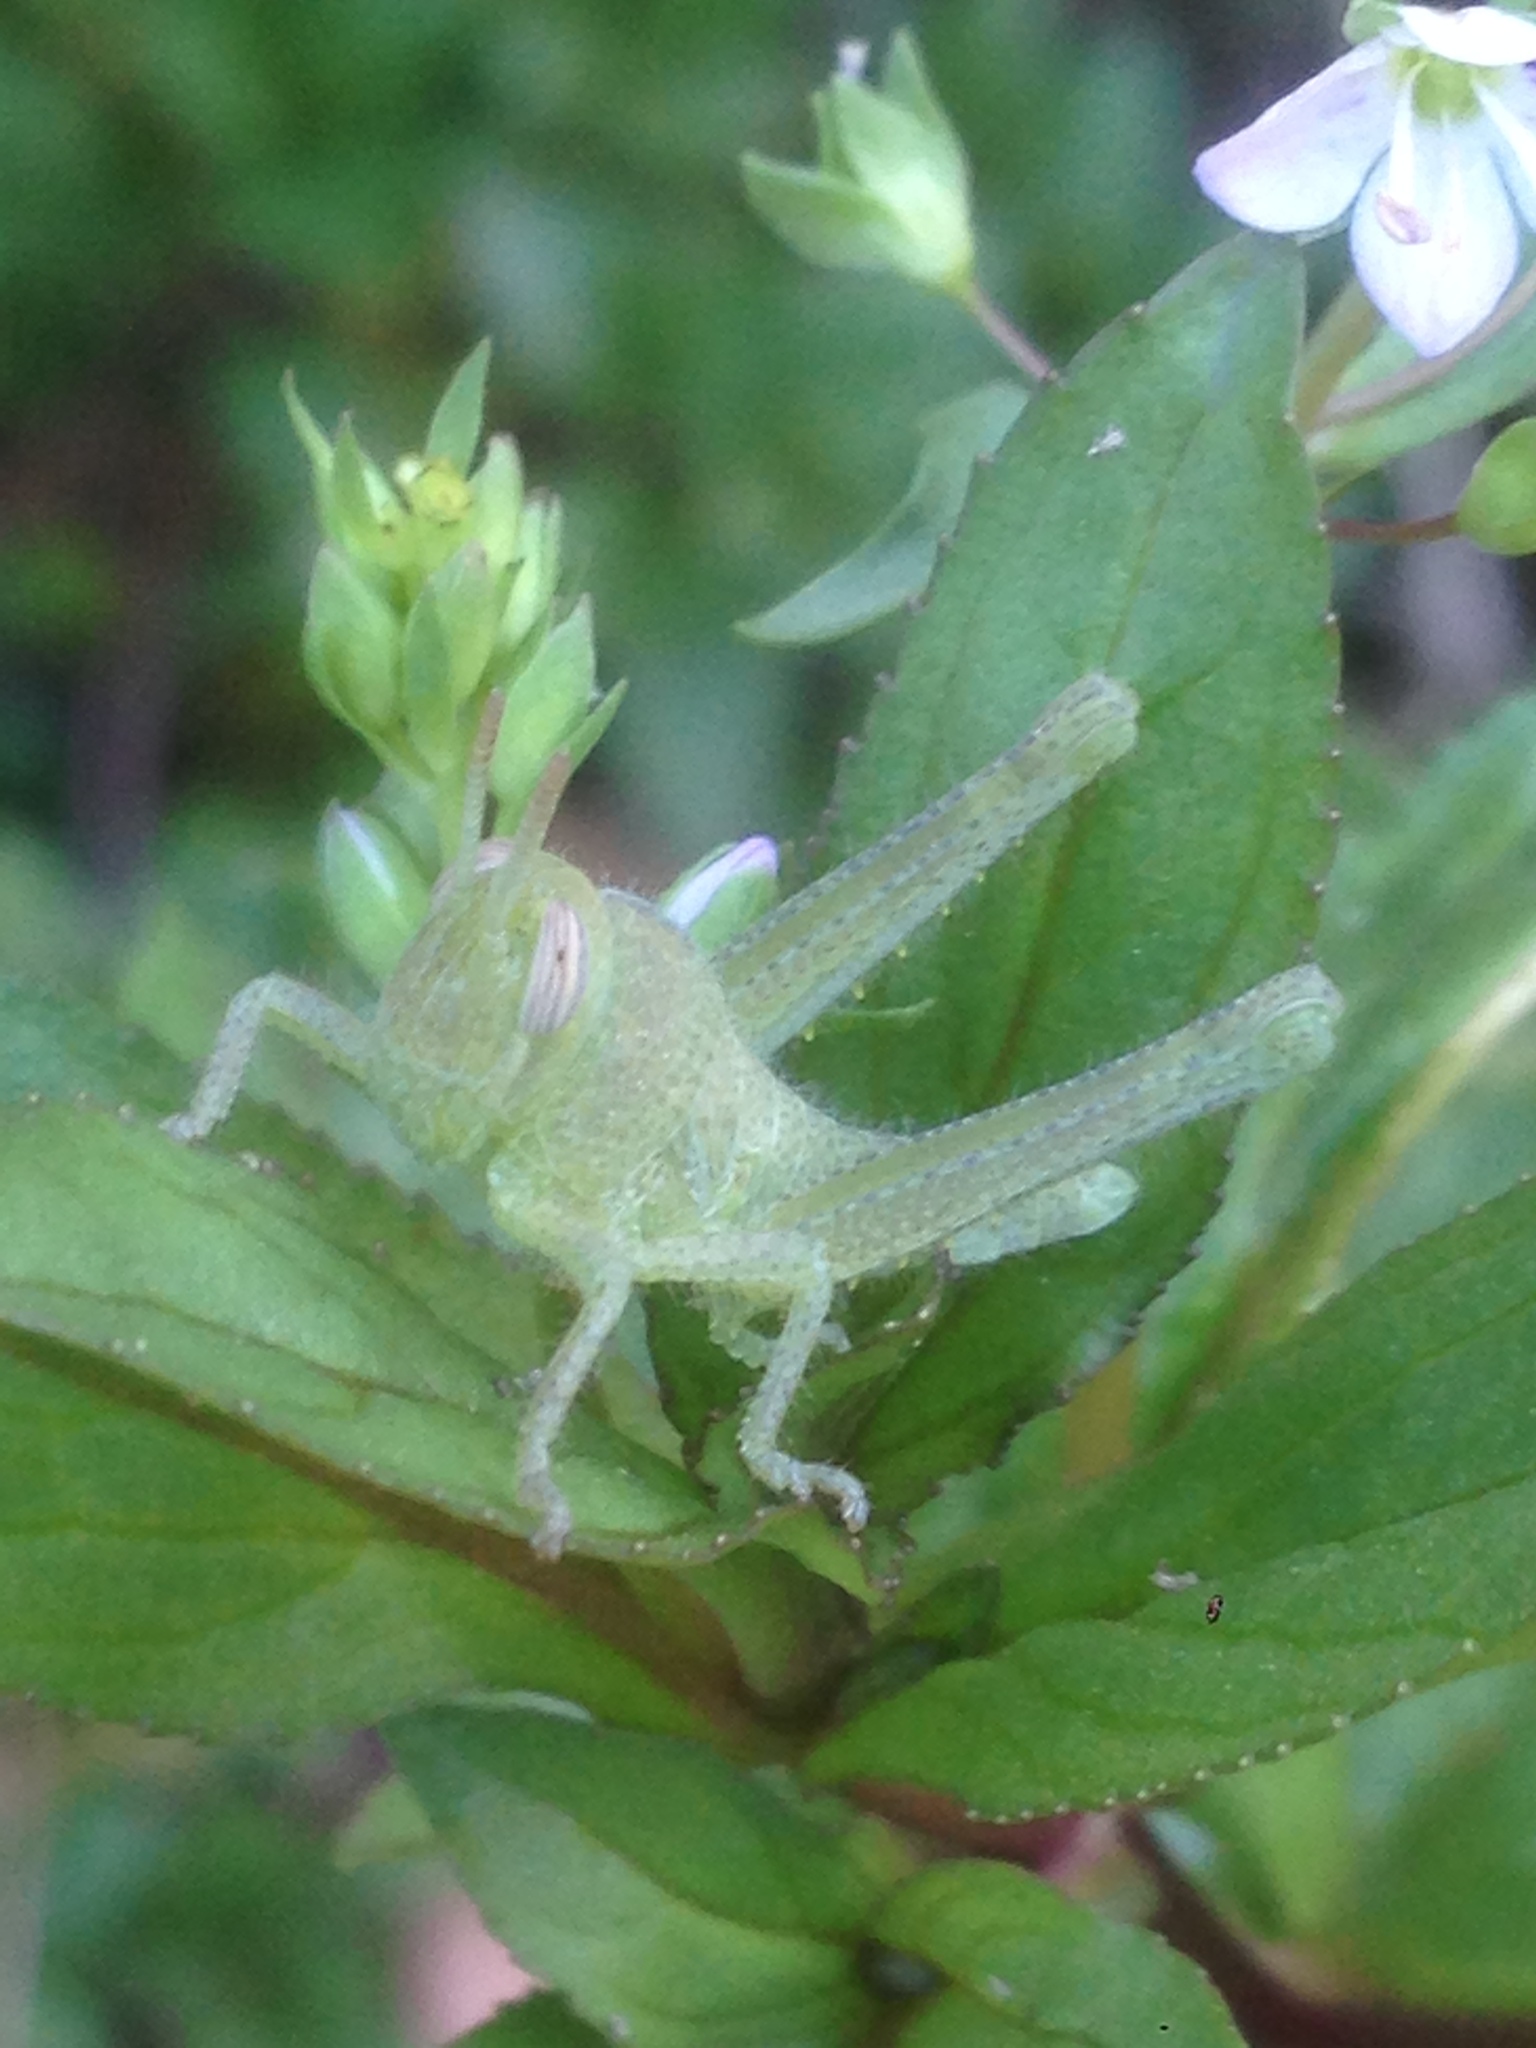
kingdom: Animalia
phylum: Arthropoda
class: Insecta
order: Orthoptera
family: Acrididae
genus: Schistocerca
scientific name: Schistocerca nitens
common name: Vagrant grasshopper
